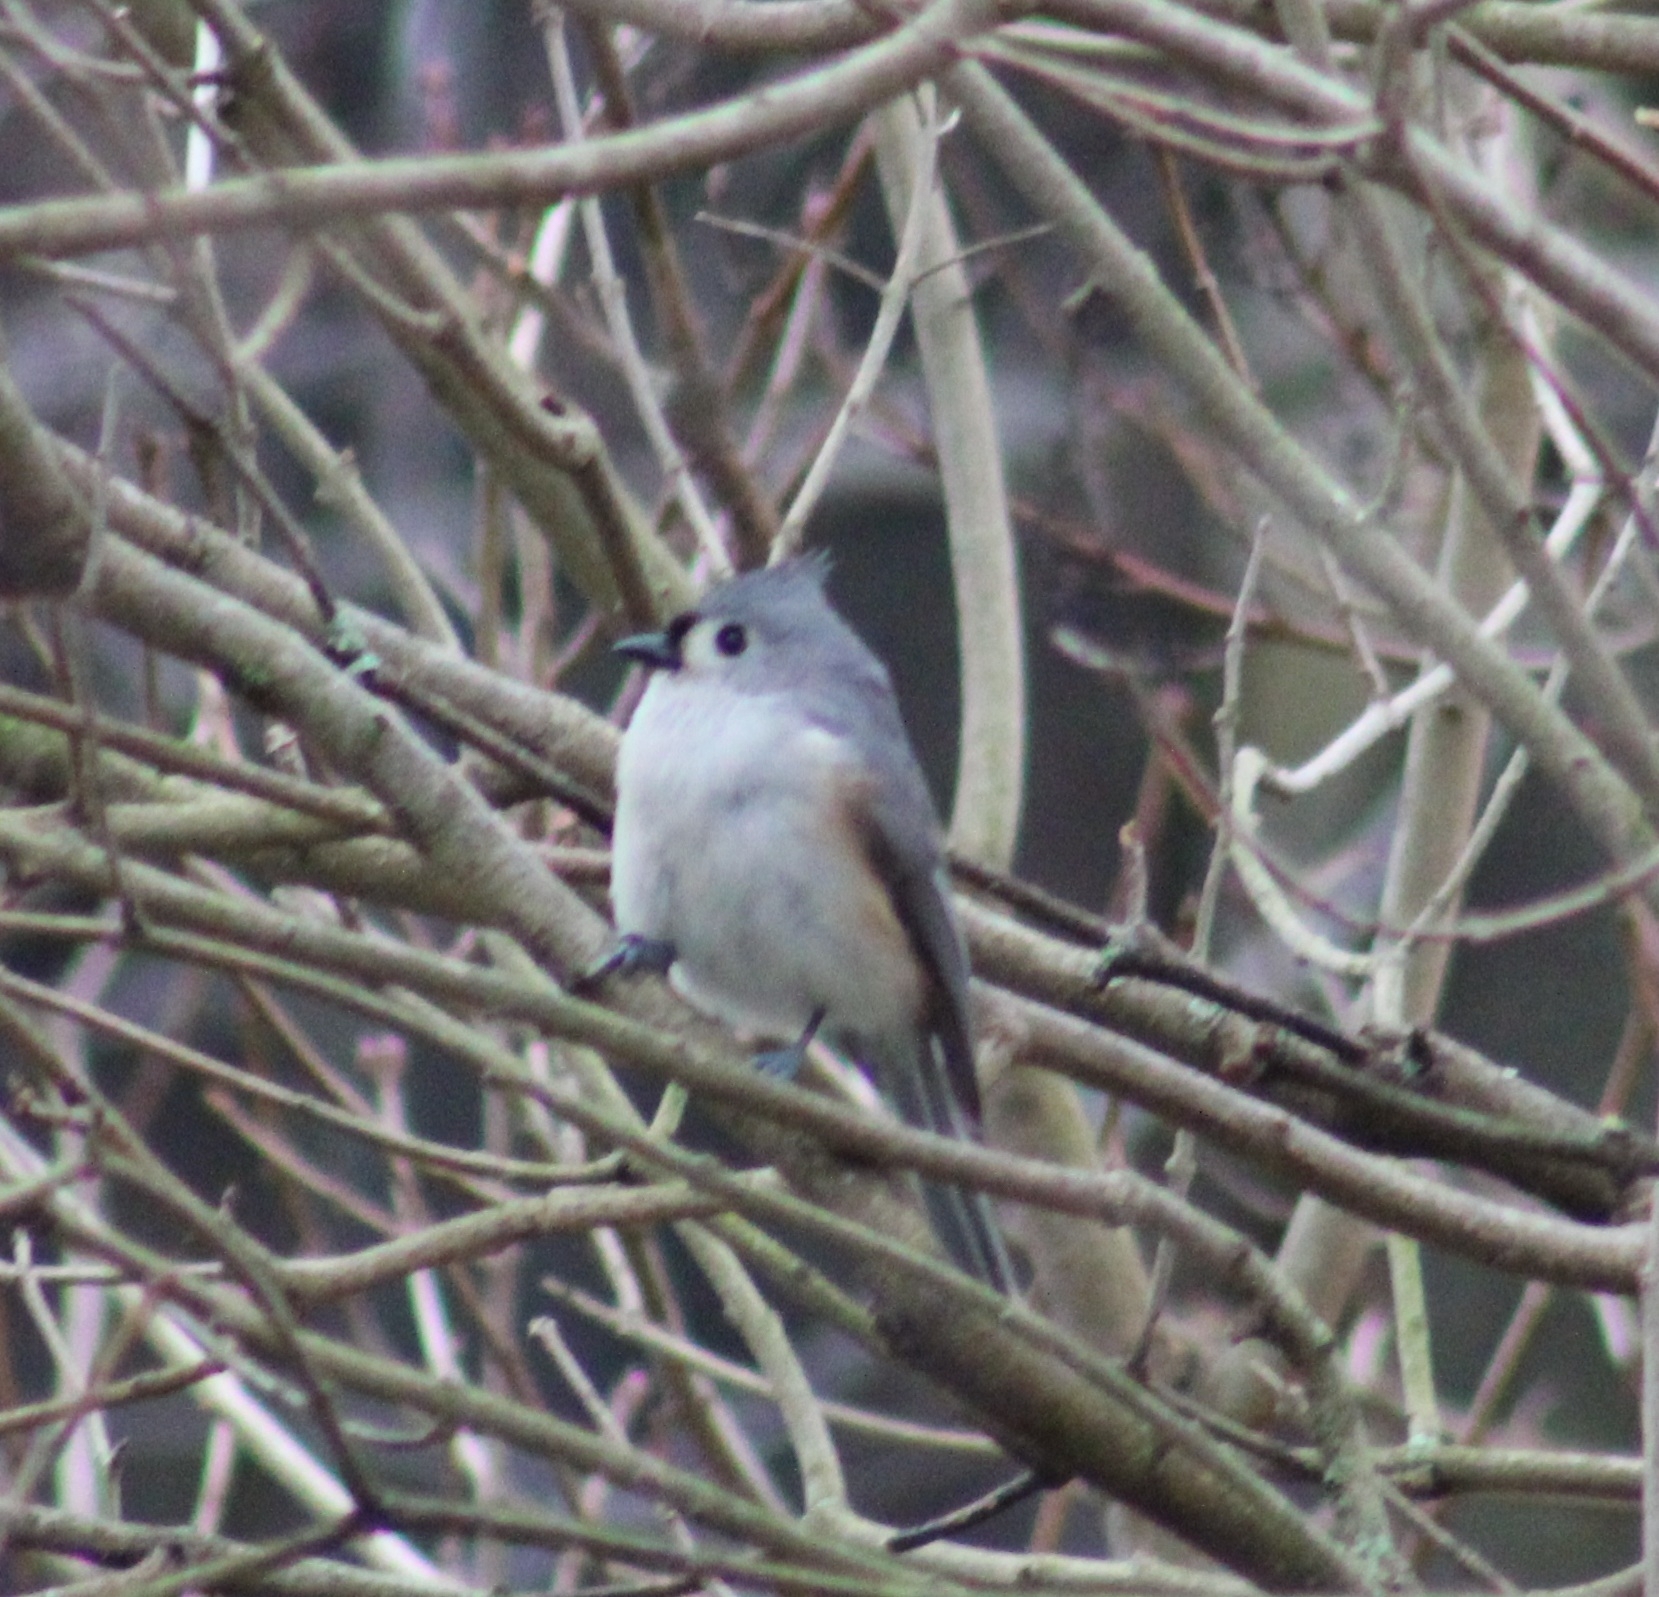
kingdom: Animalia
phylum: Chordata
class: Aves
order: Passeriformes
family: Paridae
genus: Baeolophus
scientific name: Baeolophus bicolor
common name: Tufted titmouse
